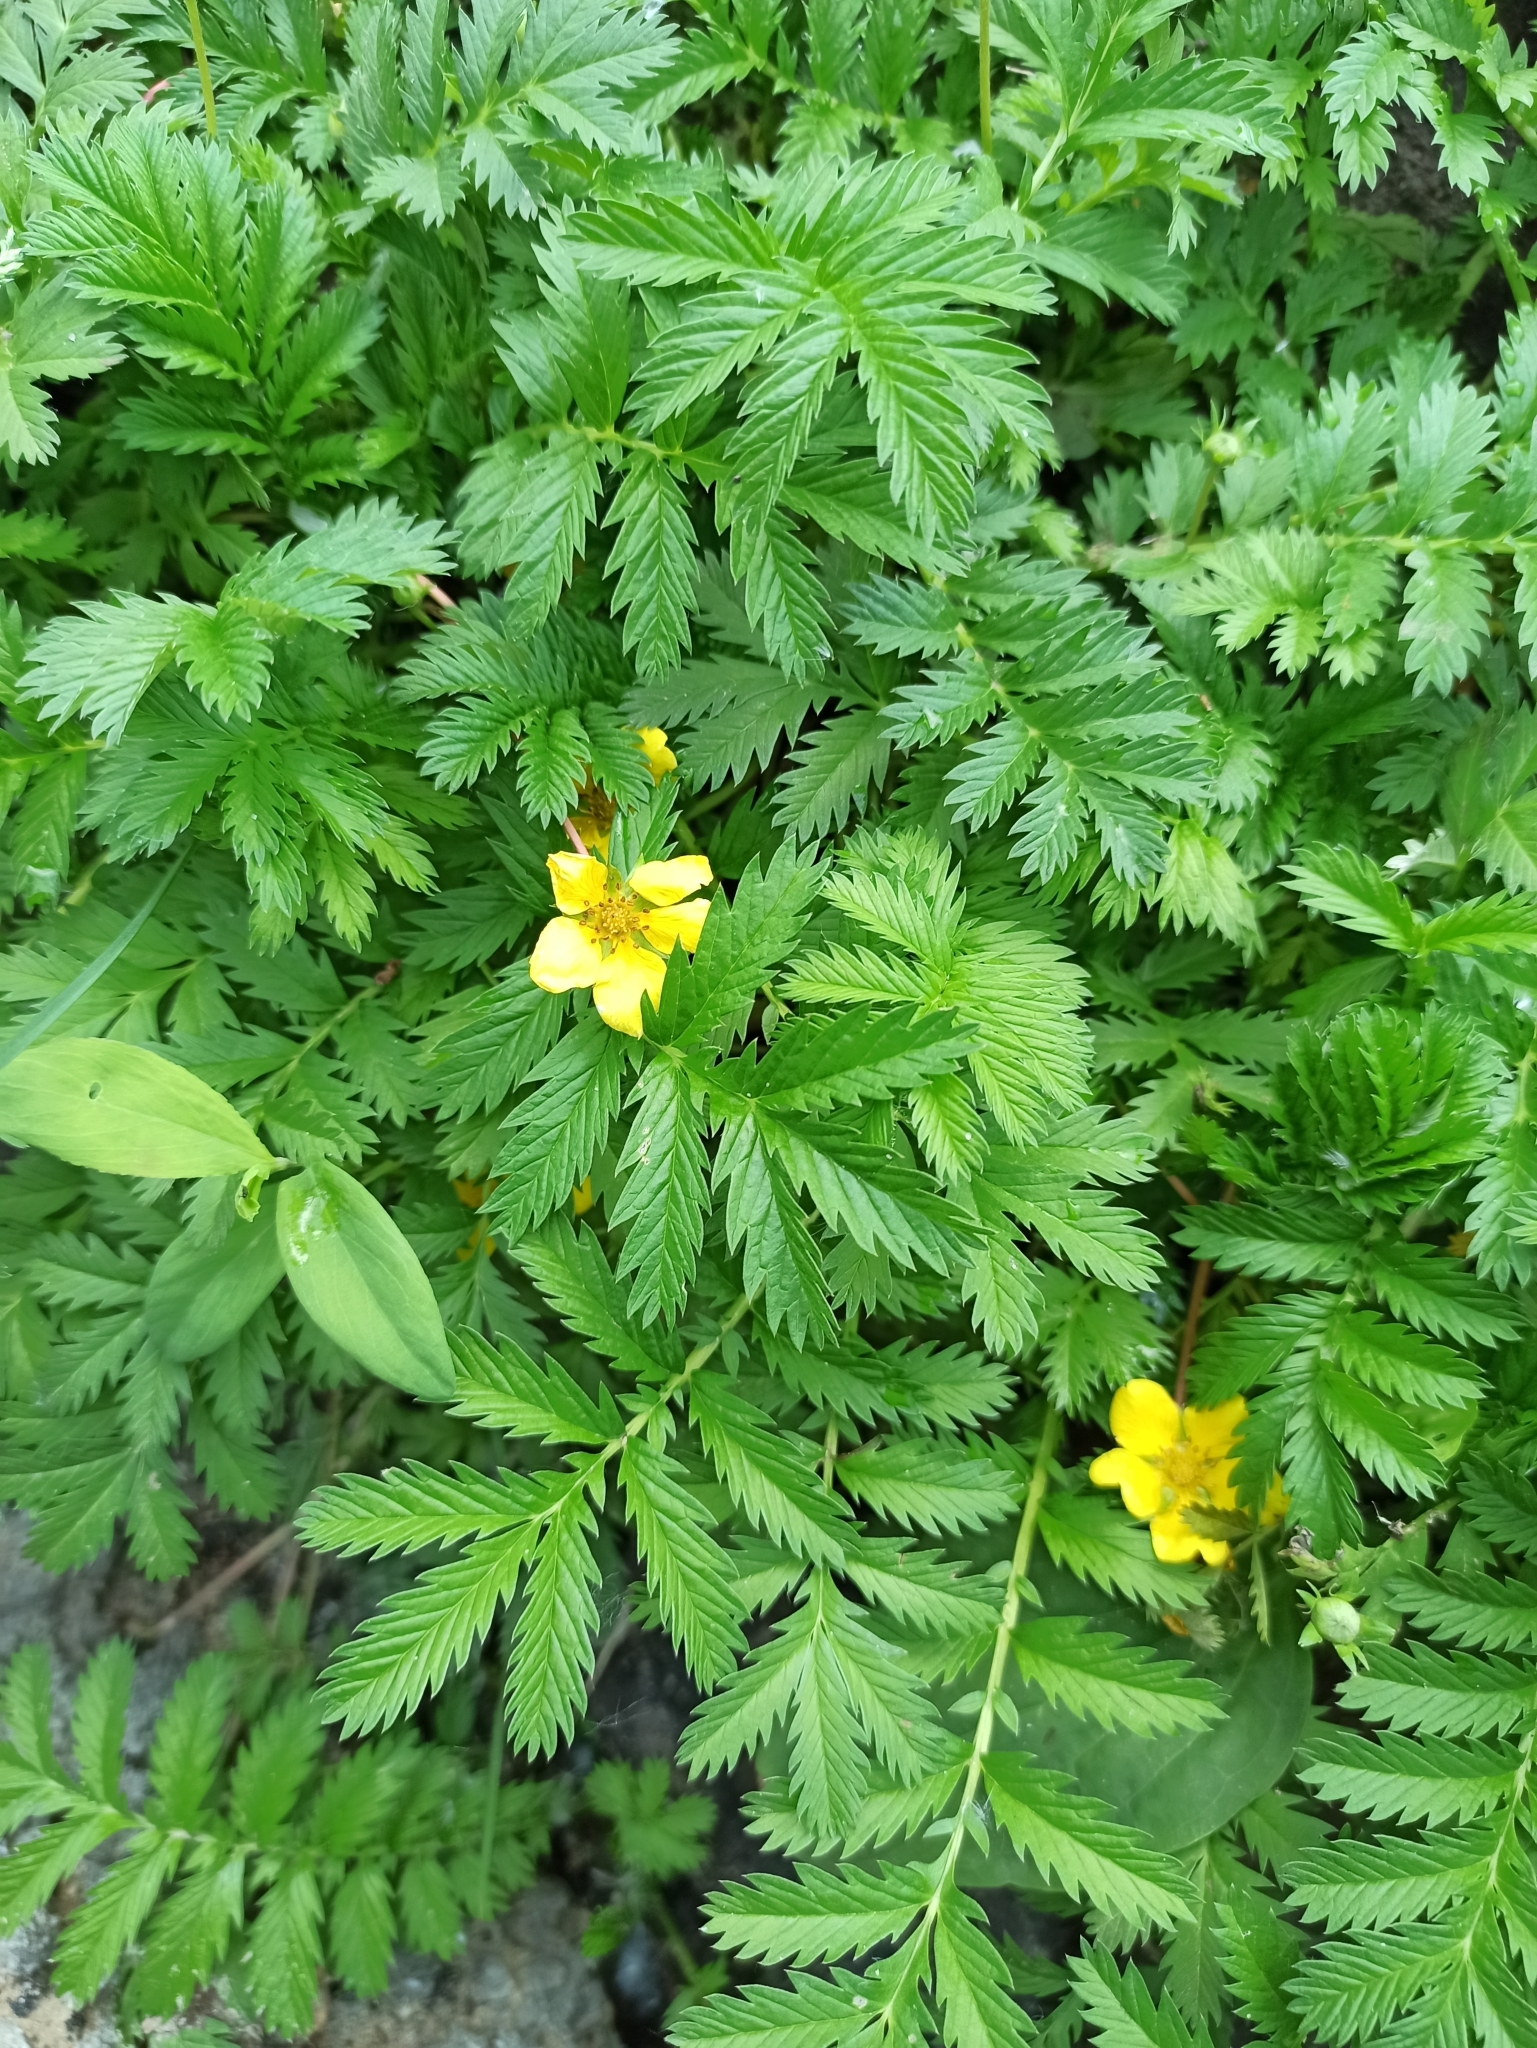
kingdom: Plantae
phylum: Tracheophyta
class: Magnoliopsida
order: Rosales
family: Rosaceae
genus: Argentina
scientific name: Argentina anserina
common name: Common silverweed
